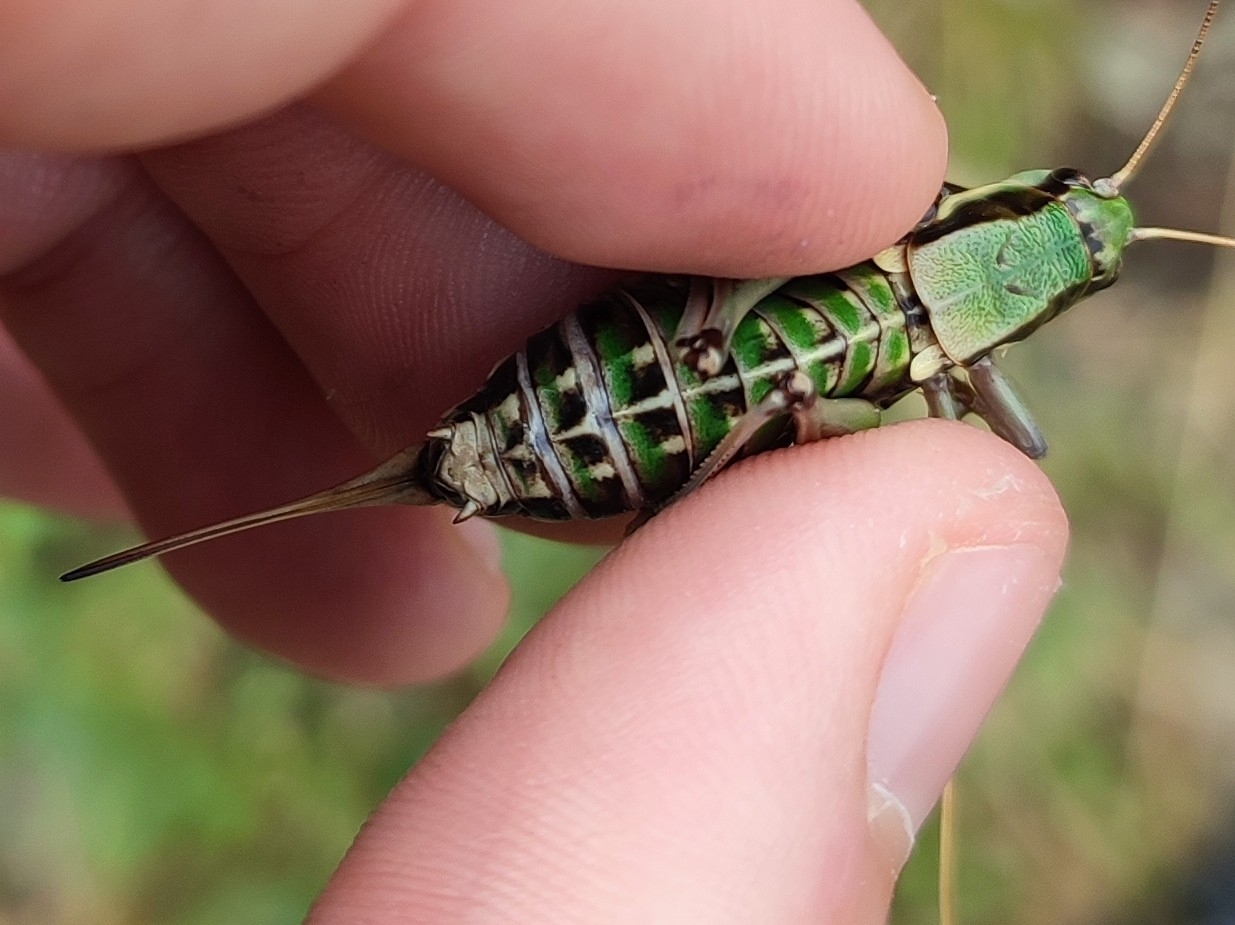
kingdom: Animalia
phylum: Arthropoda
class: Insecta
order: Orthoptera
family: Tettigoniidae
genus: Anonconotus
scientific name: Anonconotus ghilianii
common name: Ghiliani's alpine bush-cricket
